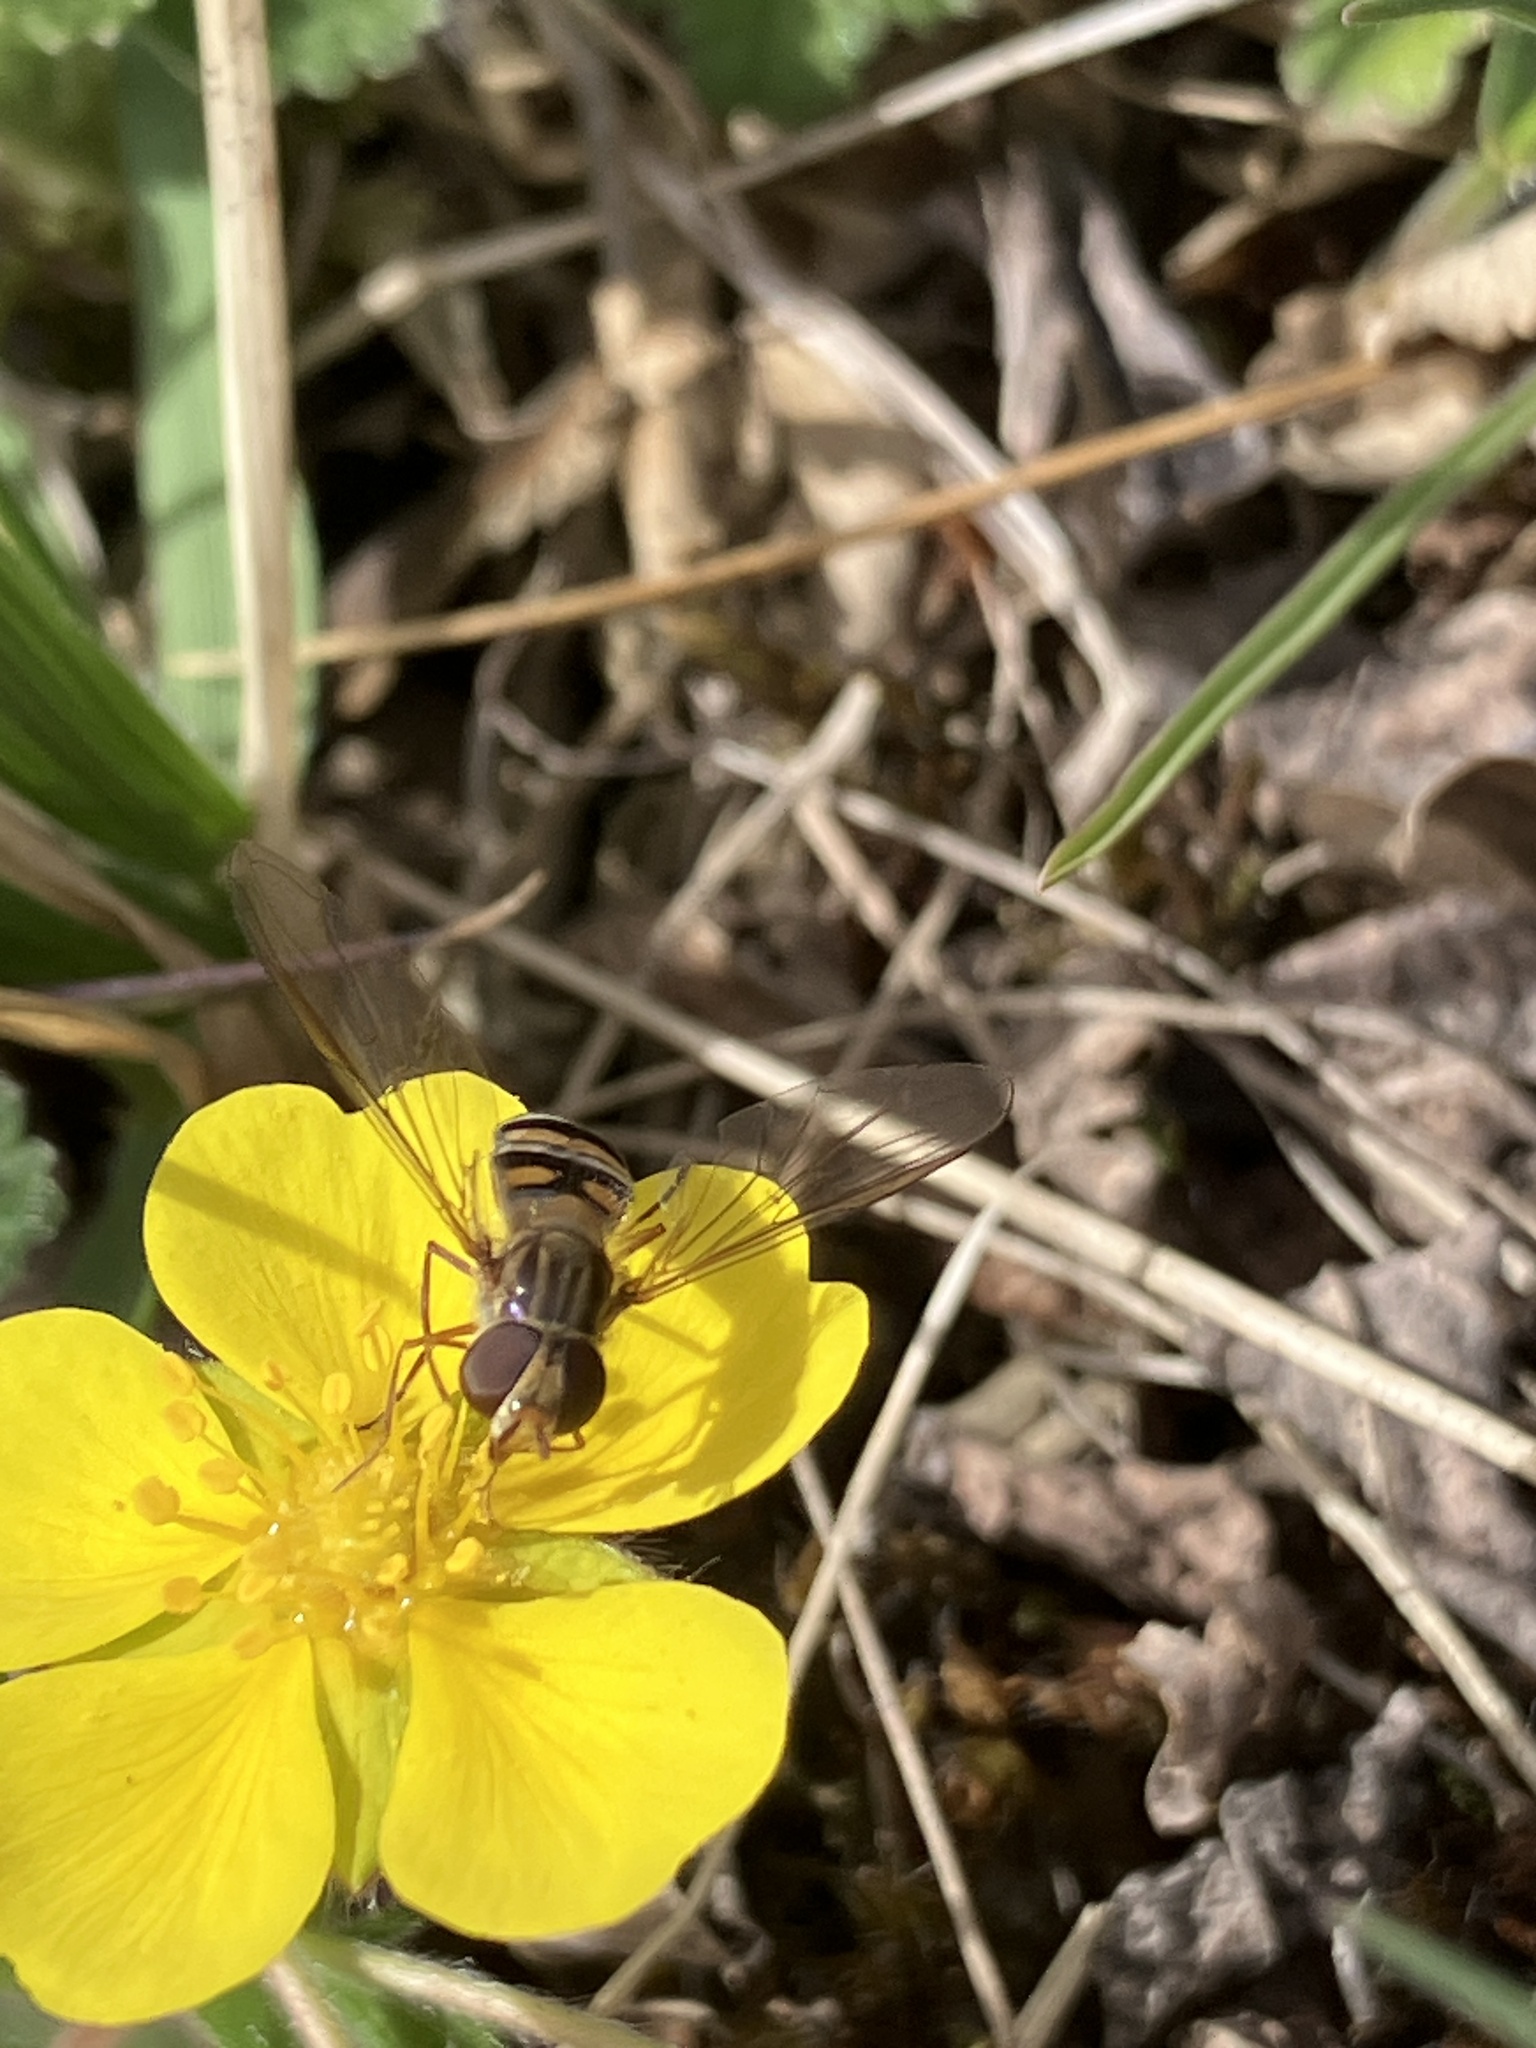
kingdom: Animalia
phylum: Arthropoda
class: Insecta
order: Diptera
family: Syrphidae
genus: Episyrphus
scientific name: Episyrphus balteatus
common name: Marmalade hoverfly
